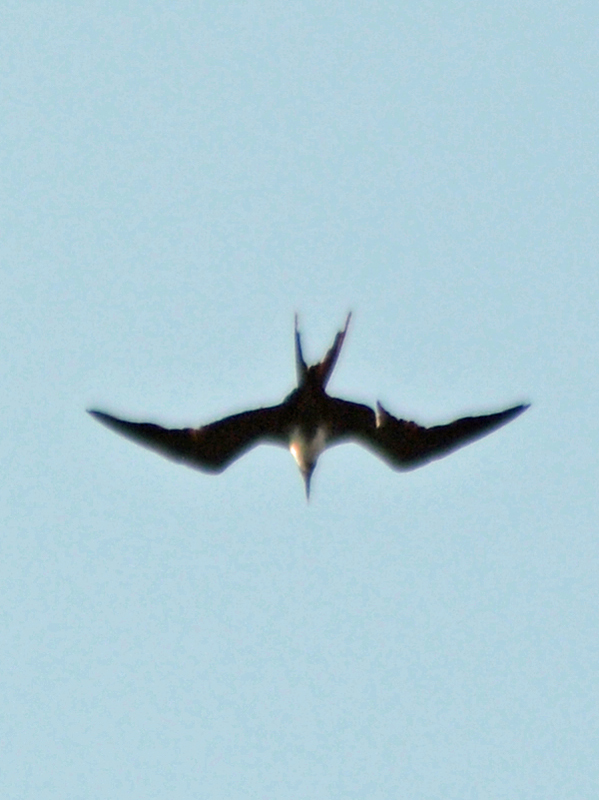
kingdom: Animalia
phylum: Chordata
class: Aves
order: Suliformes
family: Fregatidae
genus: Fregata
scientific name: Fregata magnificens
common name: Magnificent frigatebird
